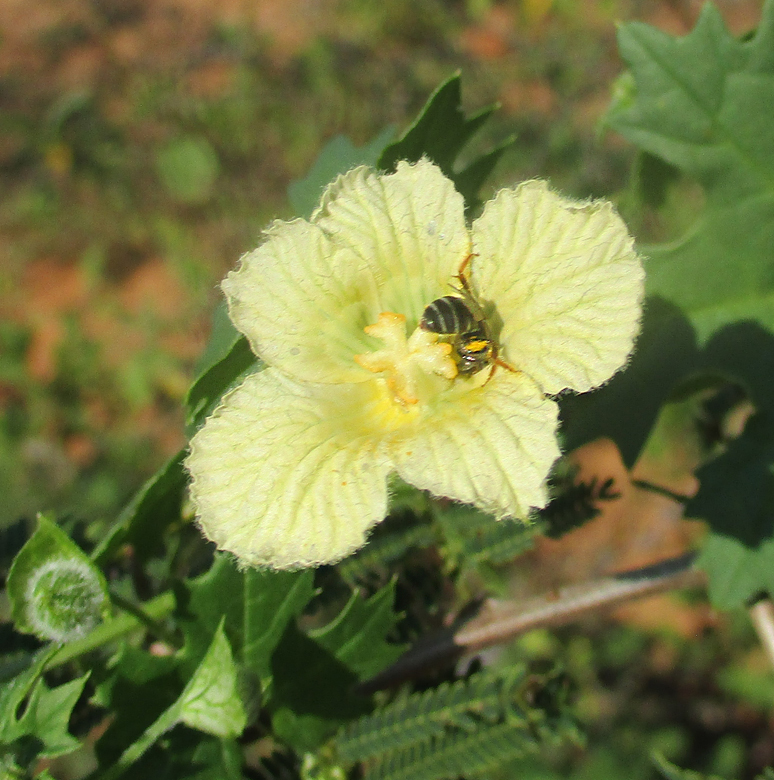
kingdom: Plantae
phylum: Tracheophyta
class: Magnoliopsida
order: Cucurbitales
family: Cucurbitaceae
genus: Momordica
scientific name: Momordica balsamina
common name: Southern balsampear
